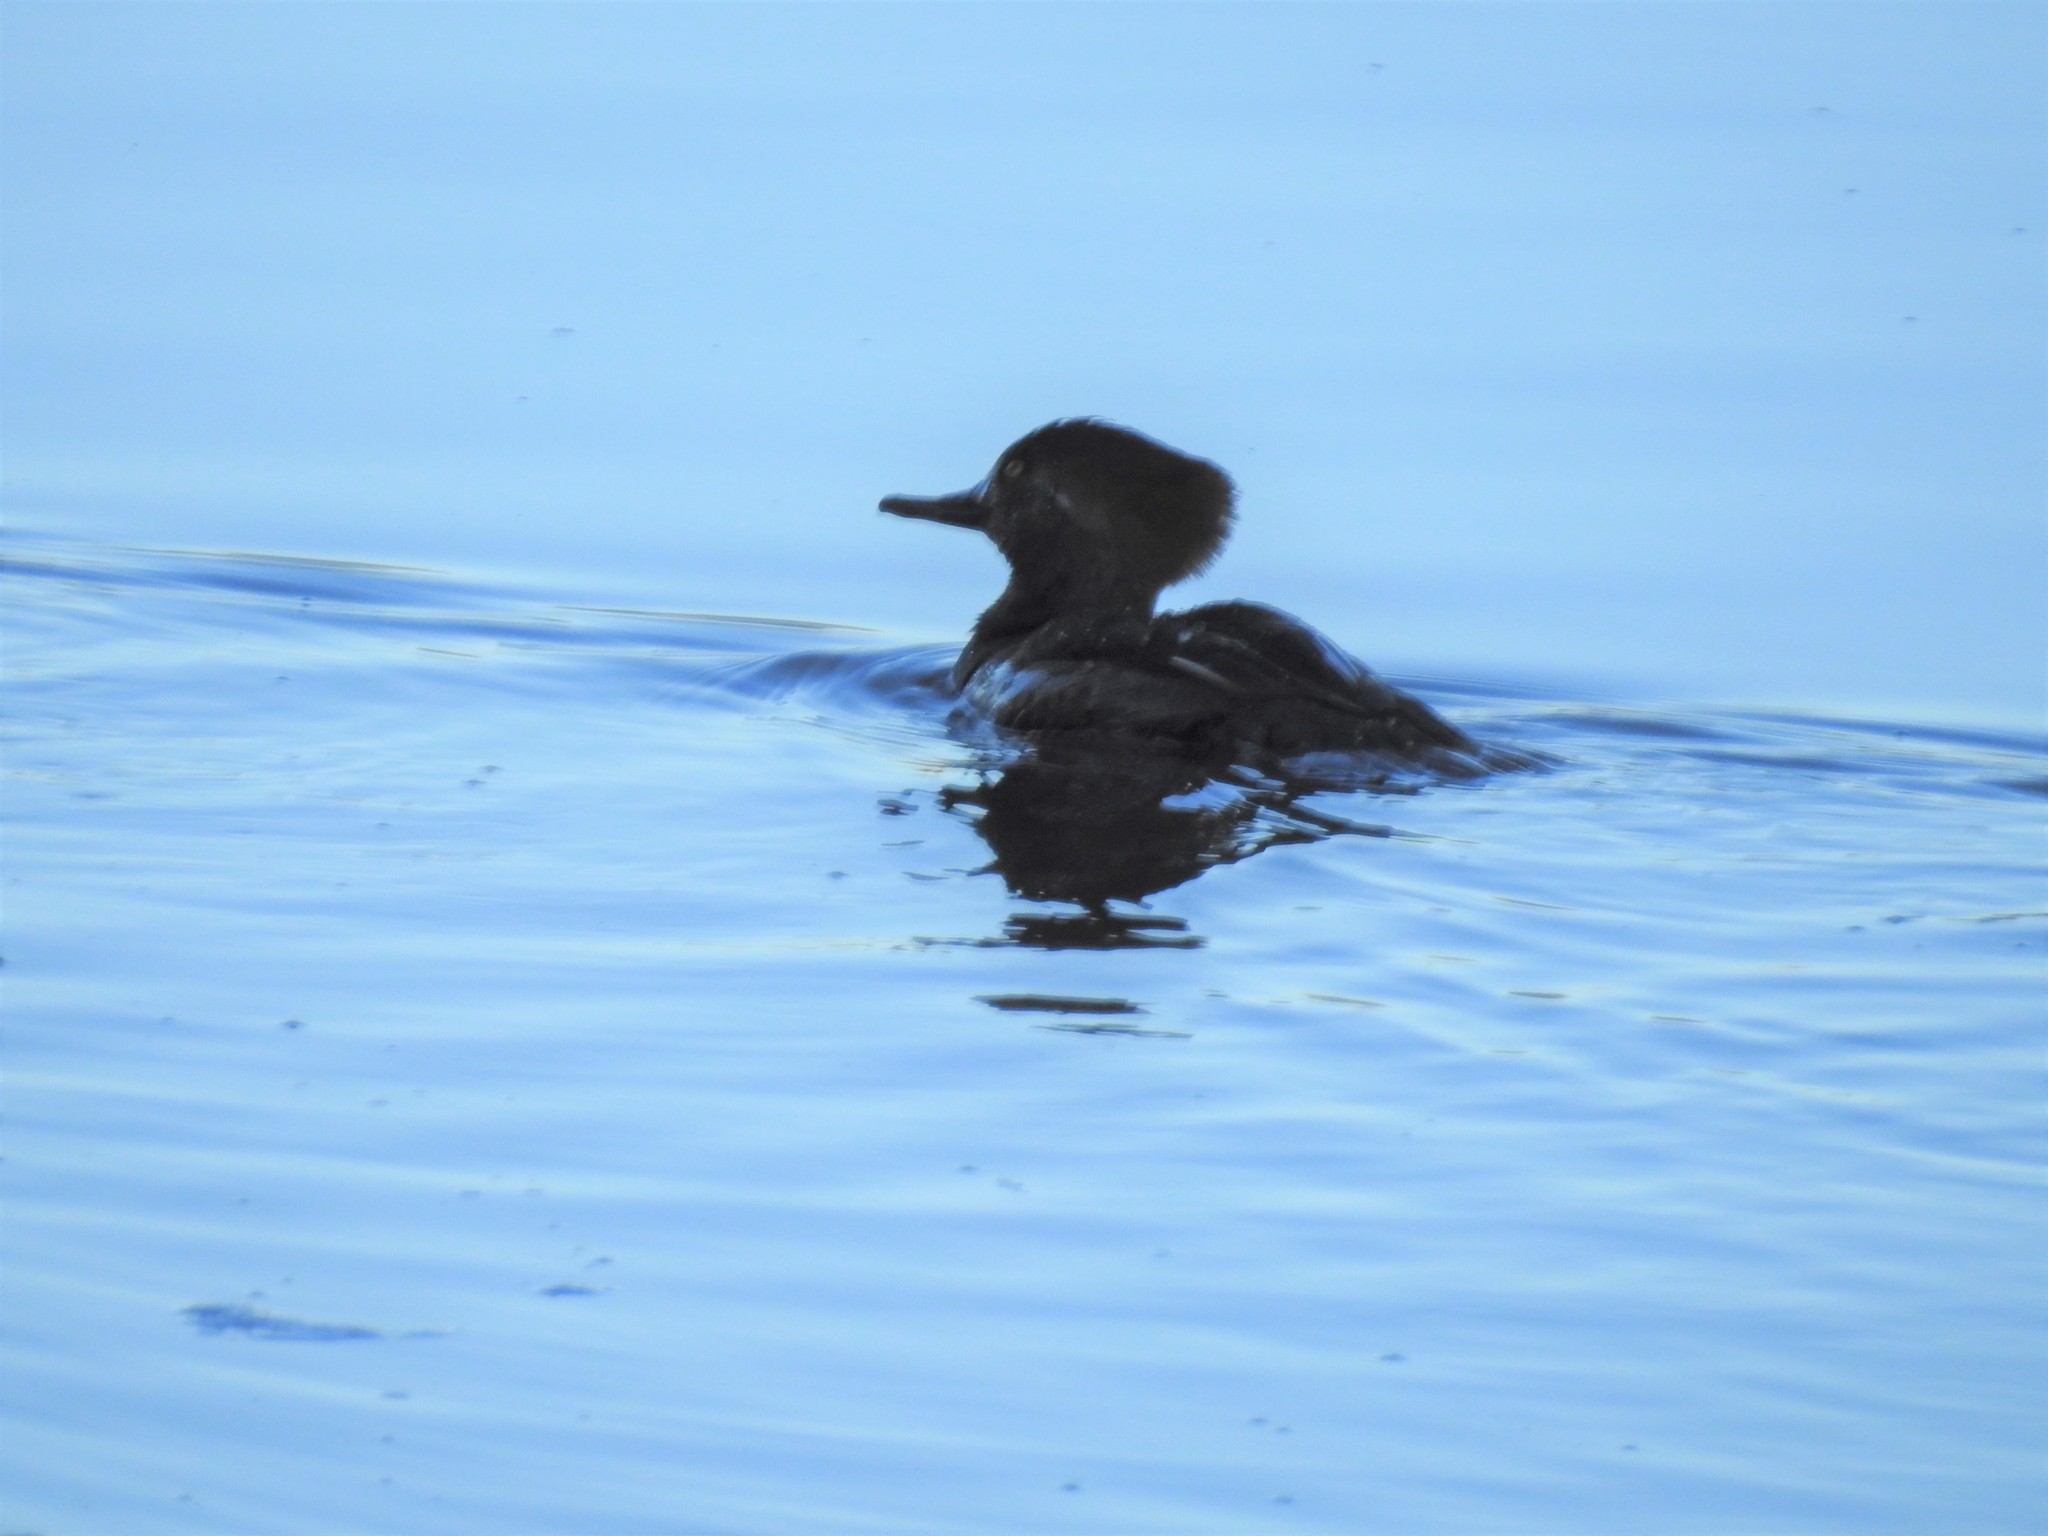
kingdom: Animalia
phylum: Chordata
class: Aves
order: Anseriformes
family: Anatidae
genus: Lophodytes
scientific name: Lophodytes cucullatus
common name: Hooded merganser
